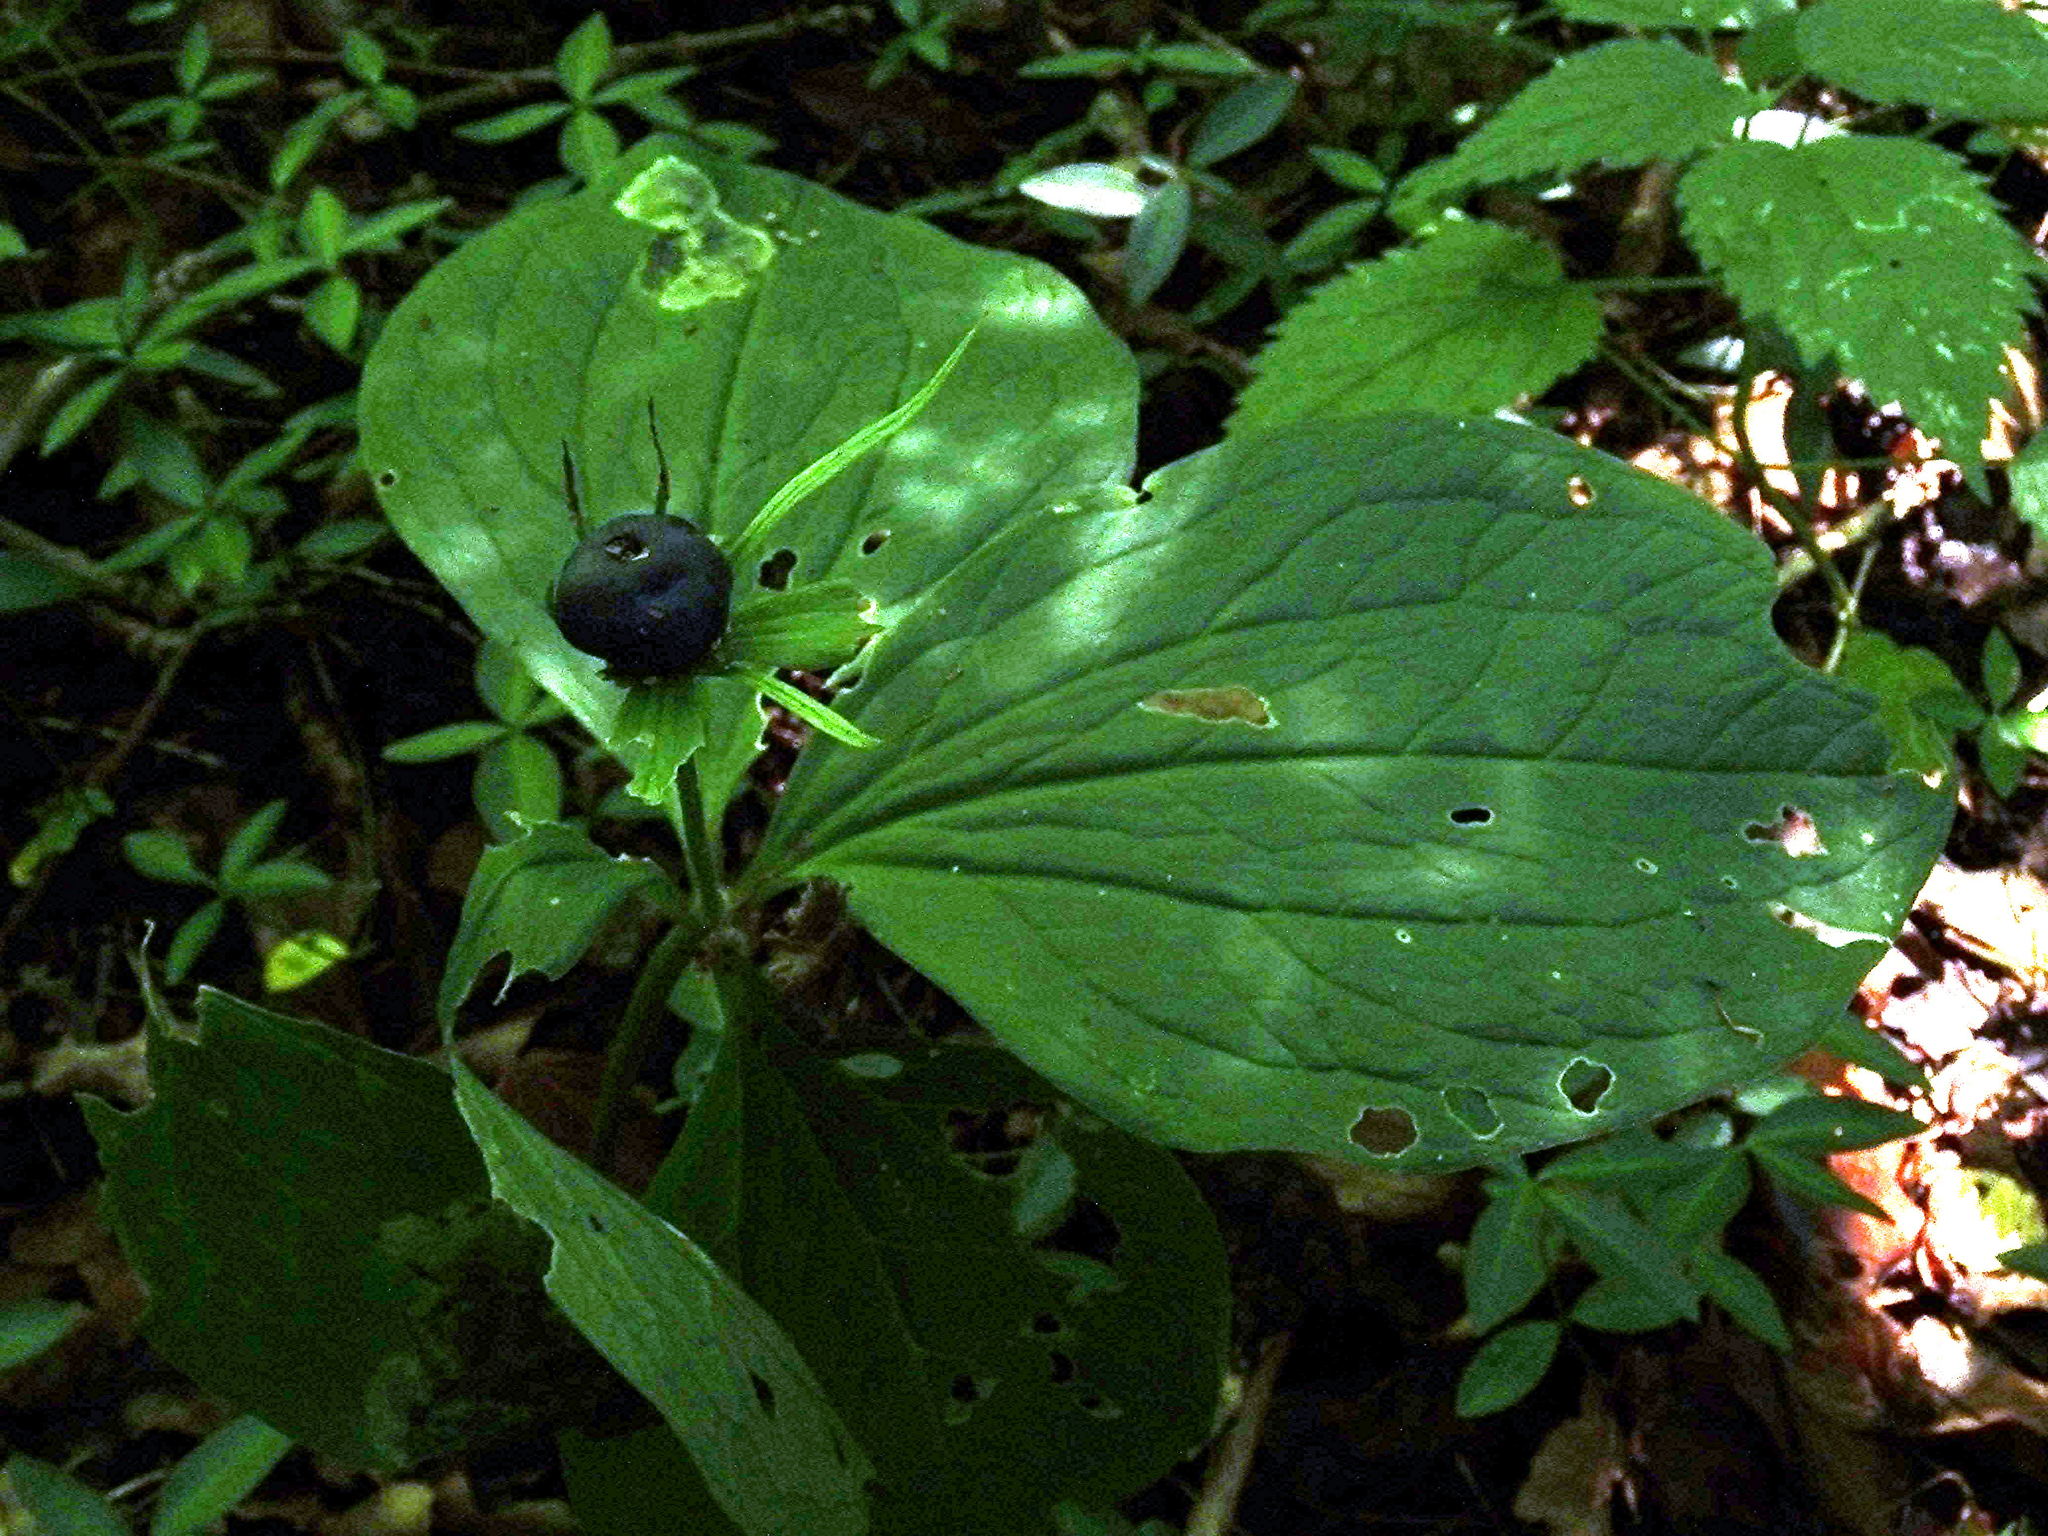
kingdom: Plantae
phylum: Tracheophyta
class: Liliopsida
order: Liliales
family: Melanthiaceae
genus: Paris
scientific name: Paris quadrifolia
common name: Herb-paris
